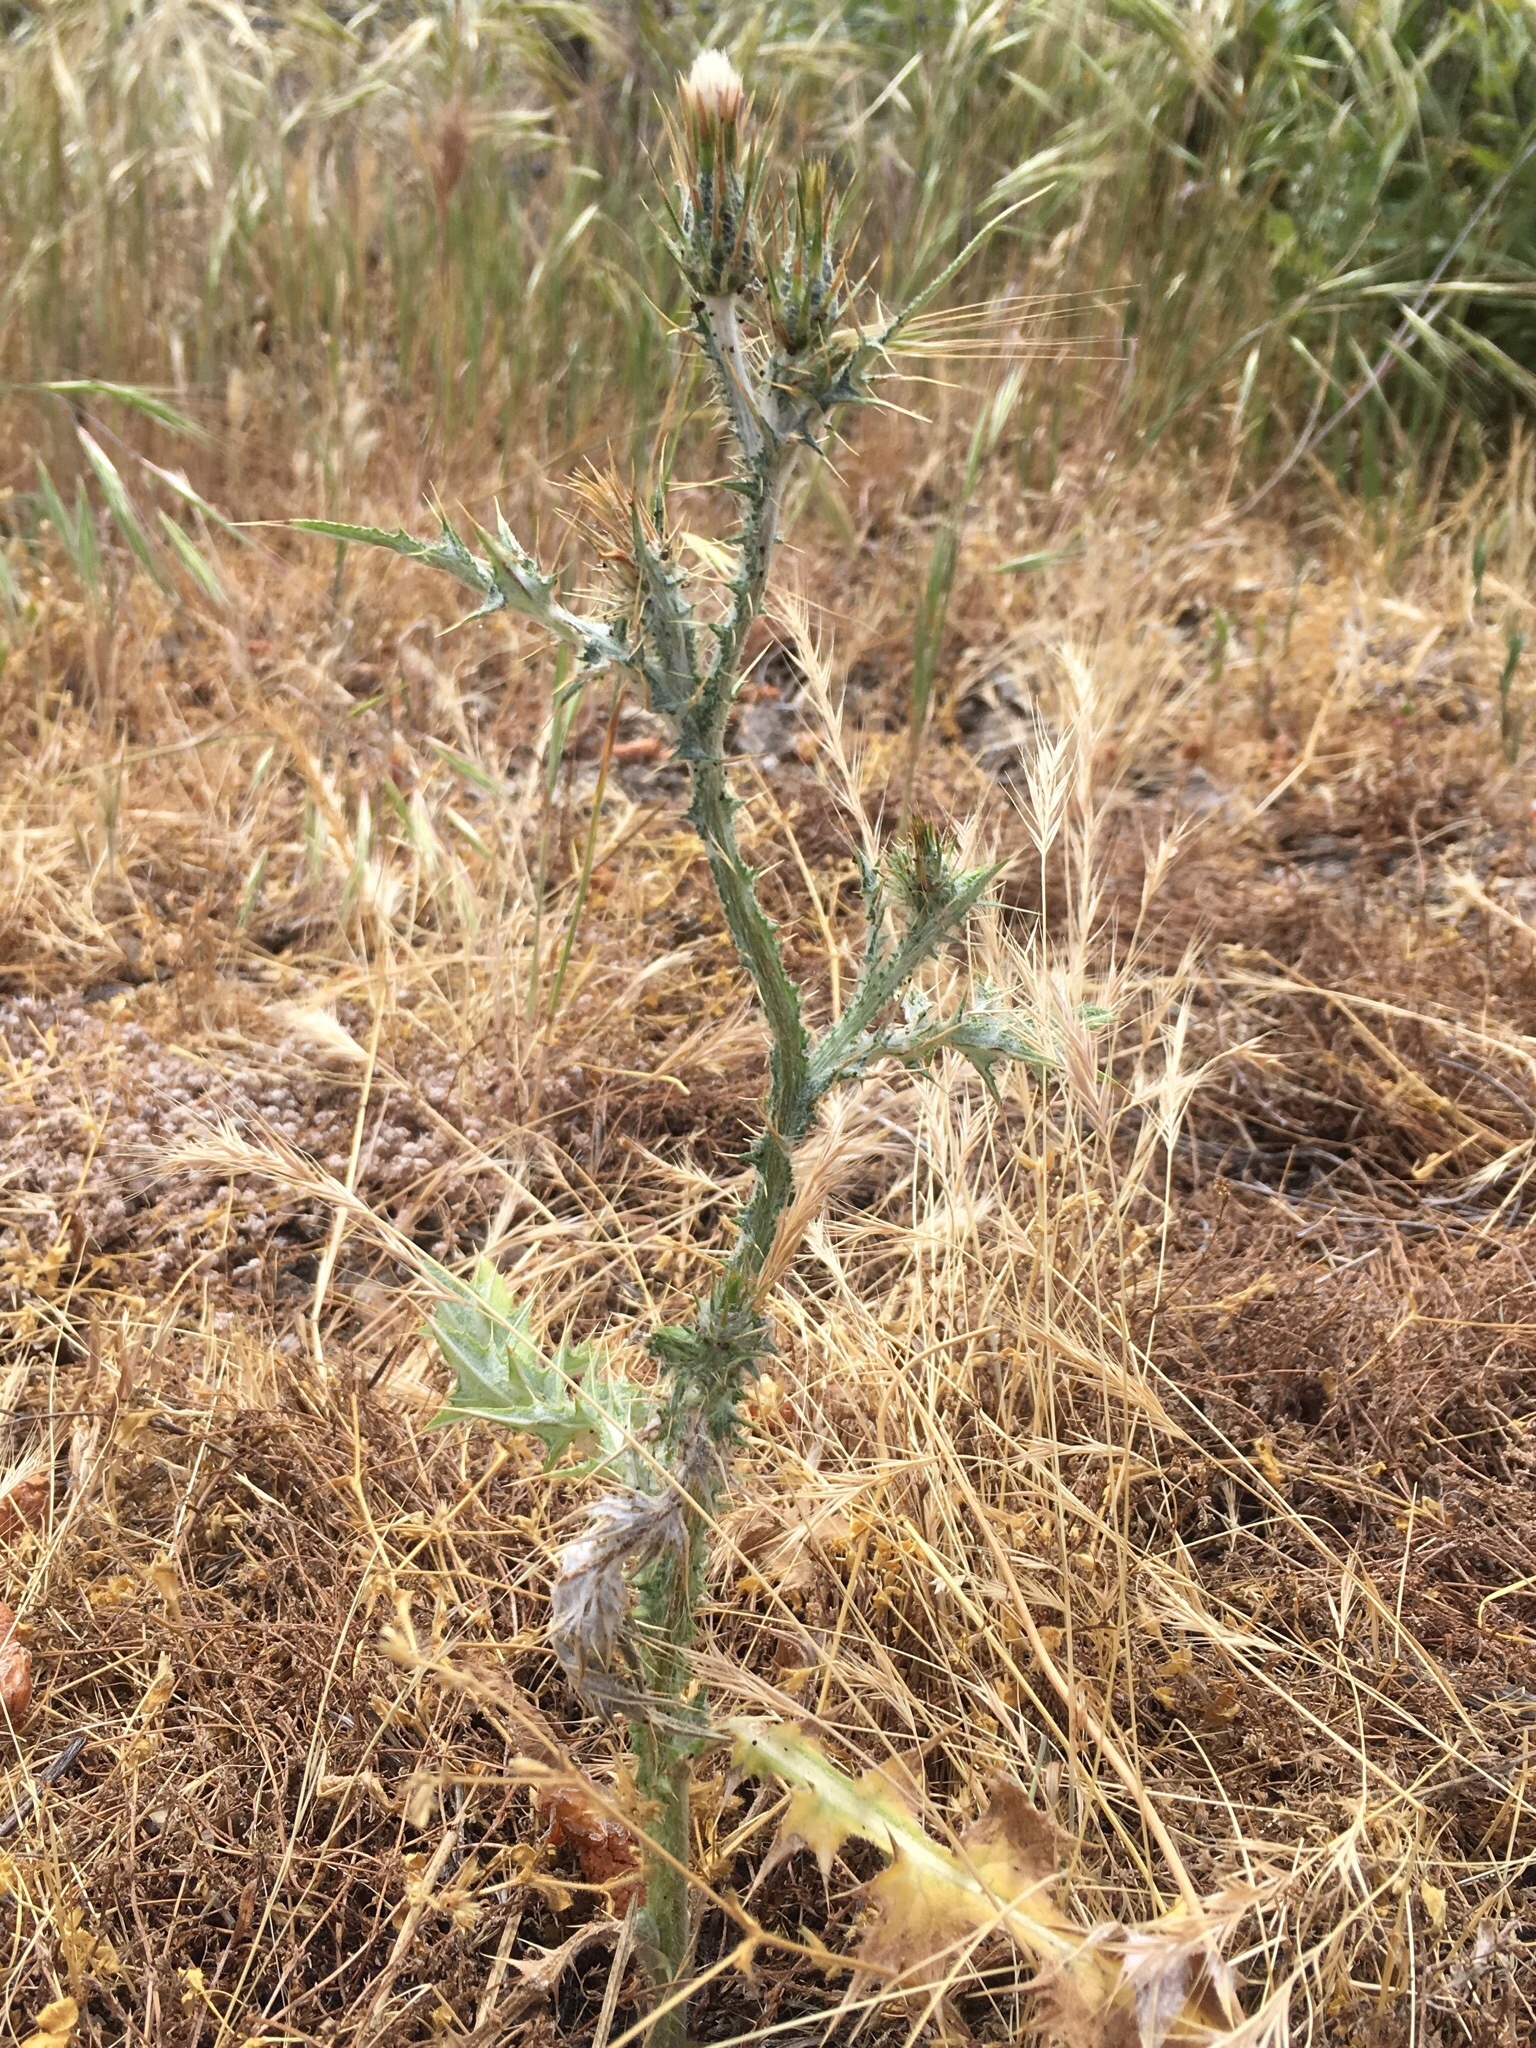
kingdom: Plantae
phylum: Tracheophyta
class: Magnoliopsida
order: Asterales
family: Asteraceae
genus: Carduus
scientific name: Carduus pycnocephalus
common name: Plymouth thistle
